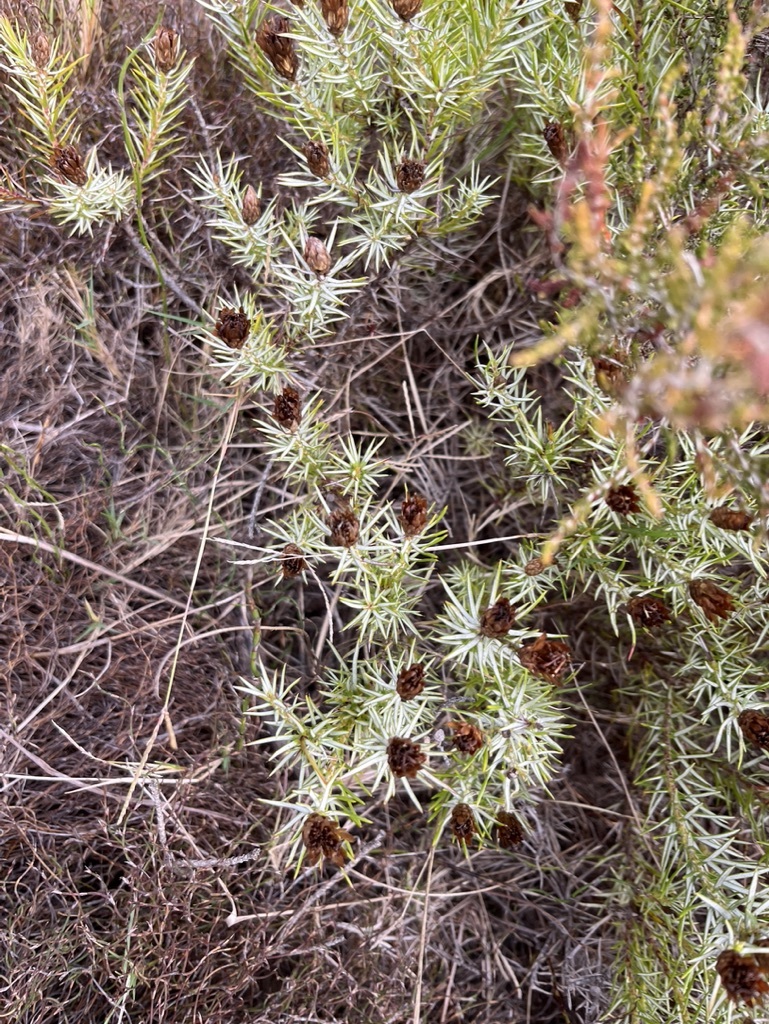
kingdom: Plantae
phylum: Tracheophyta
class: Magnoliopsida
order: Asterales
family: Asteraceae
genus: Oedera
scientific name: Oedera pungens
